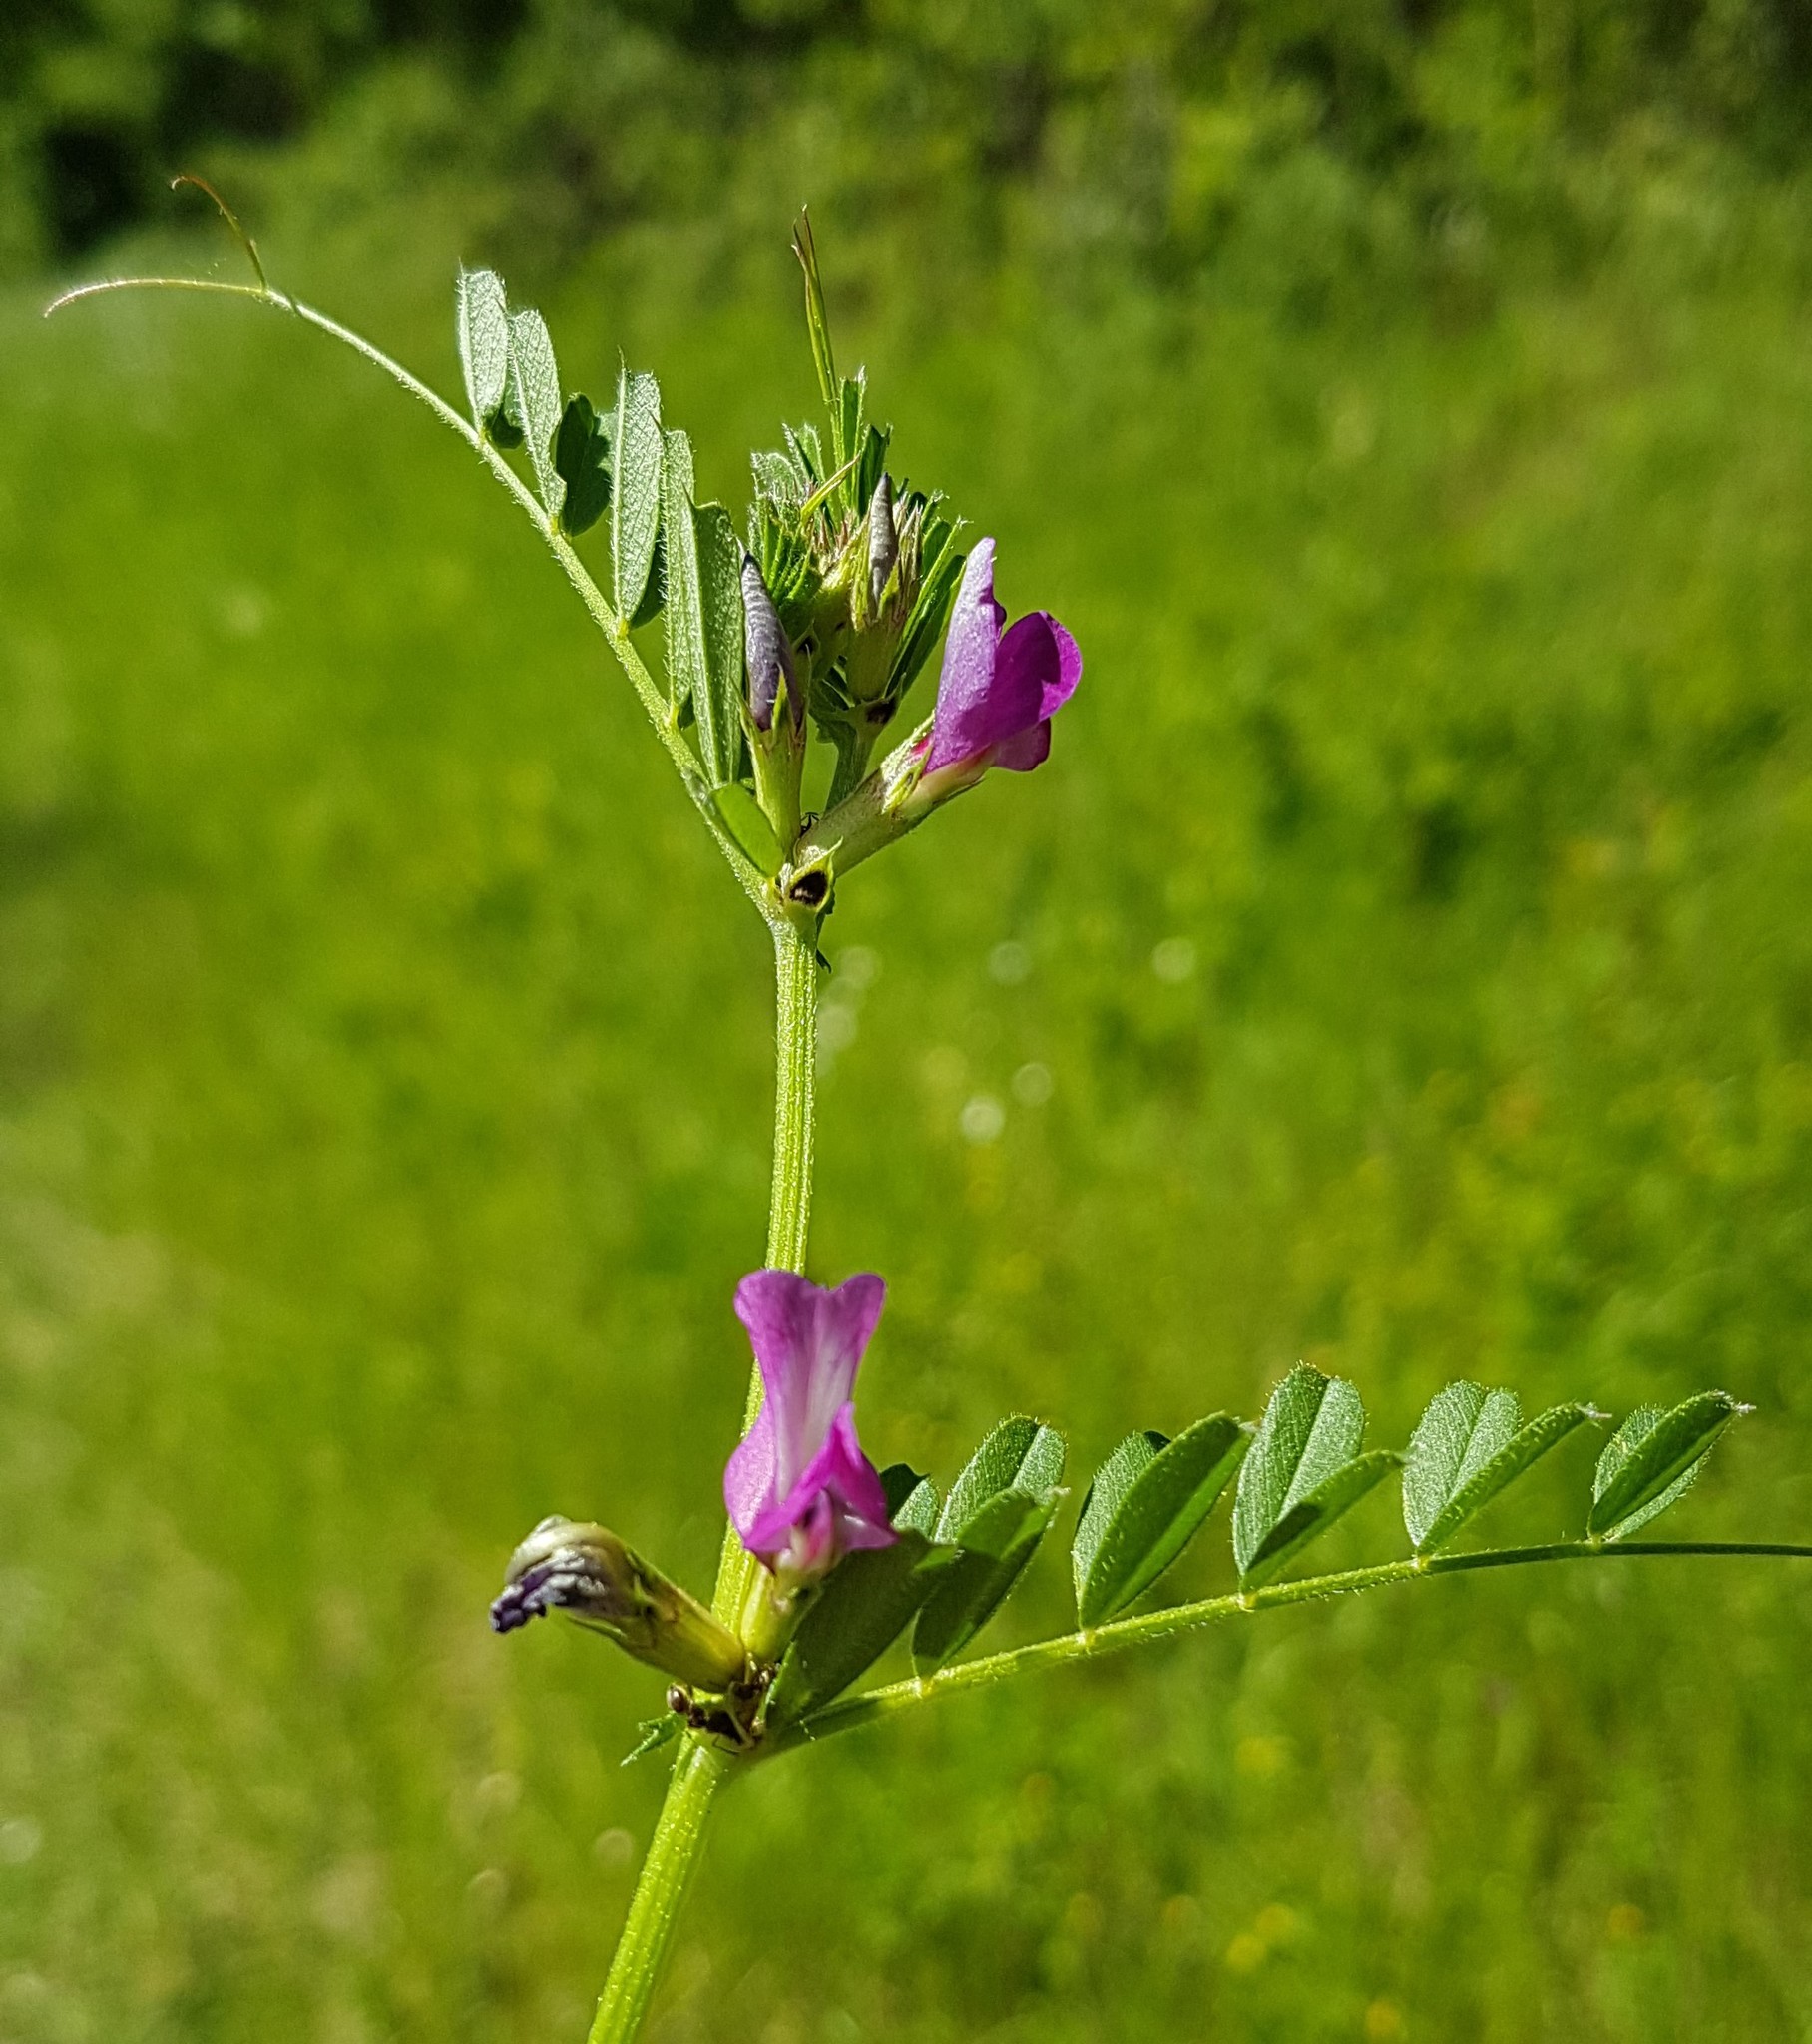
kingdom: Plantae
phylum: Tracheophyta
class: Magnoliopsida
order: Fabales
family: Fabaceae
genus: Vicia
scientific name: Vicia sativa
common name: Garden vetch
